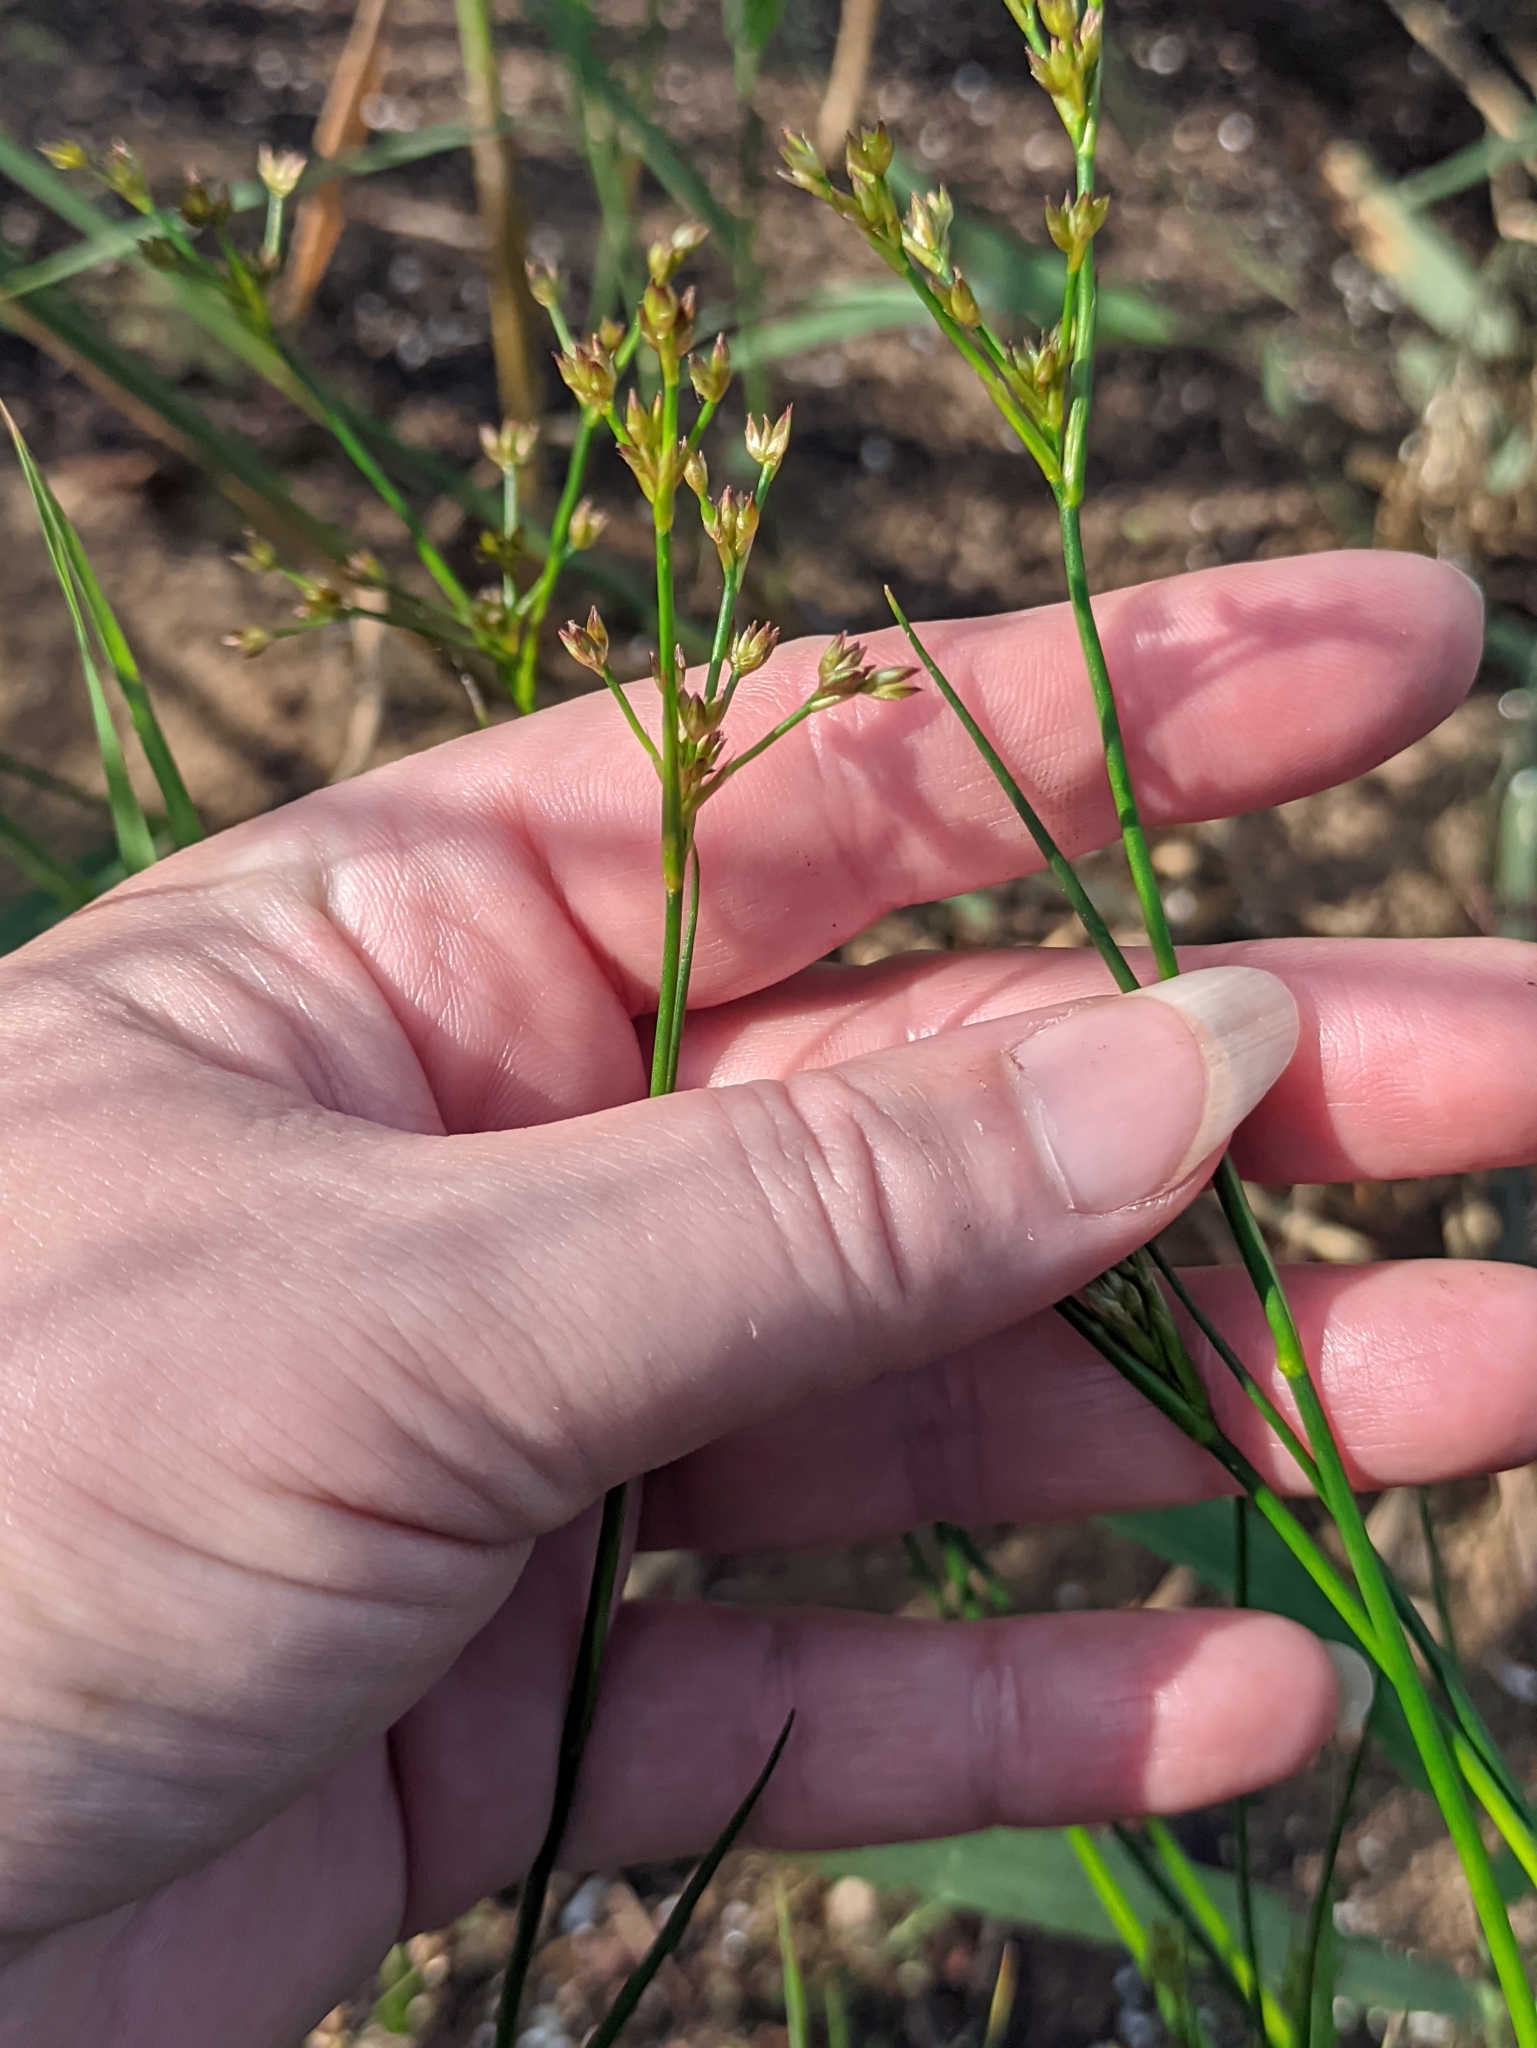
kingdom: Plantae
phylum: Tracheophyta
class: Liliopsida
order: Poales
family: Juncaceae
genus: Juncus
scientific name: Juncus articulatus
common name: Jointed rush
